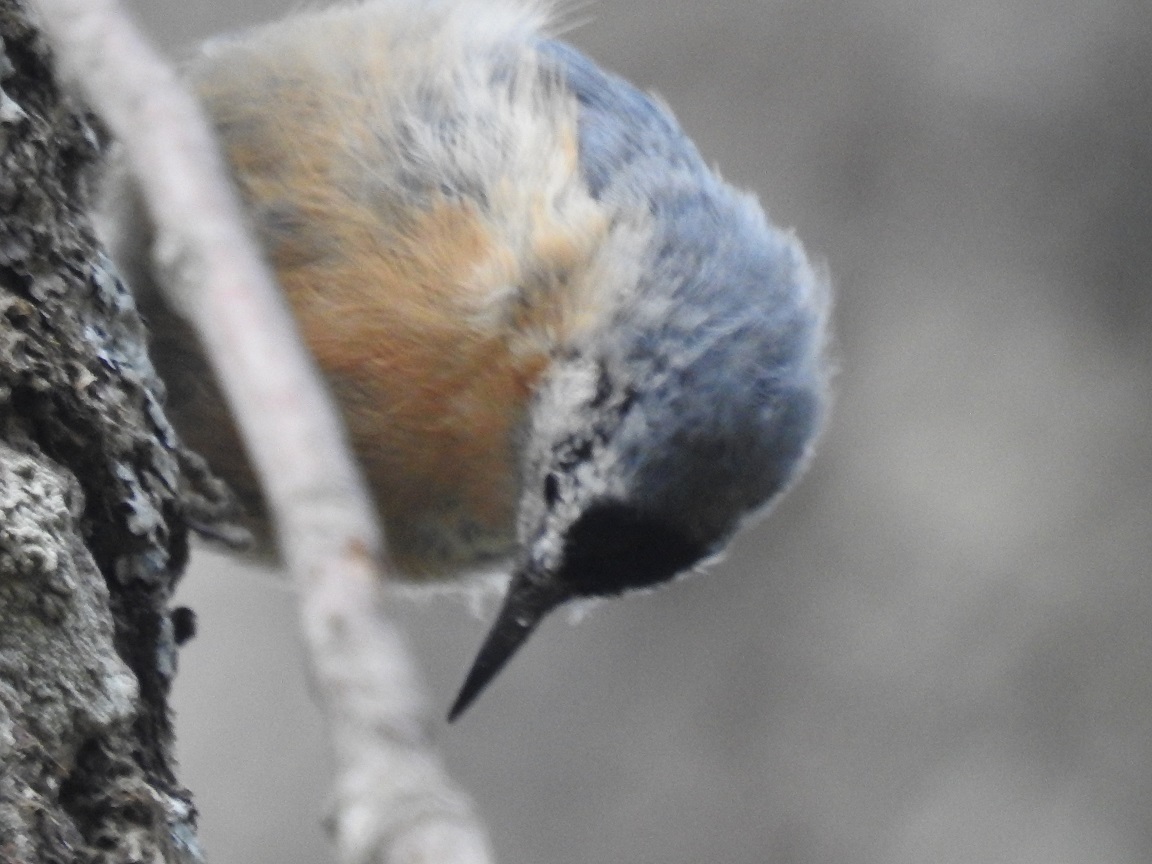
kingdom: Animalia
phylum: Chordata
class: Aves
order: Passeriformes
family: Sittidae
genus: Sitta
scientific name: Sitta ledanti
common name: Algerian nuthatch
